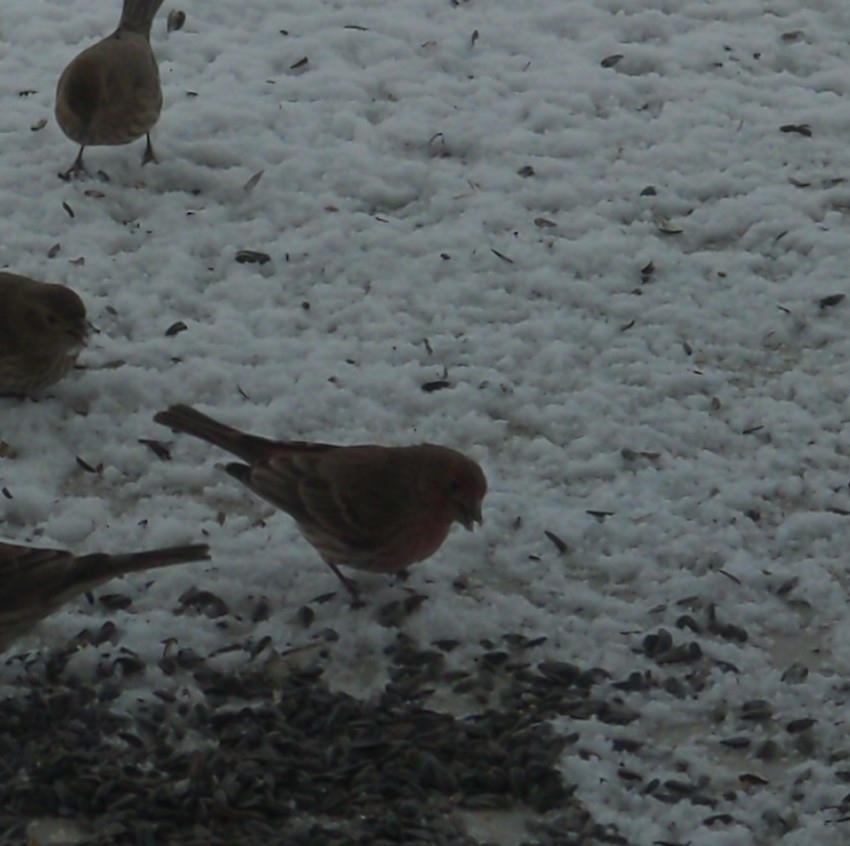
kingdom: Animalia
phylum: Chordata
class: Aves
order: Passeriformes
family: Fringillidae
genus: Haemorhous
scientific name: Haemorhous mexicanus
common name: House finch
